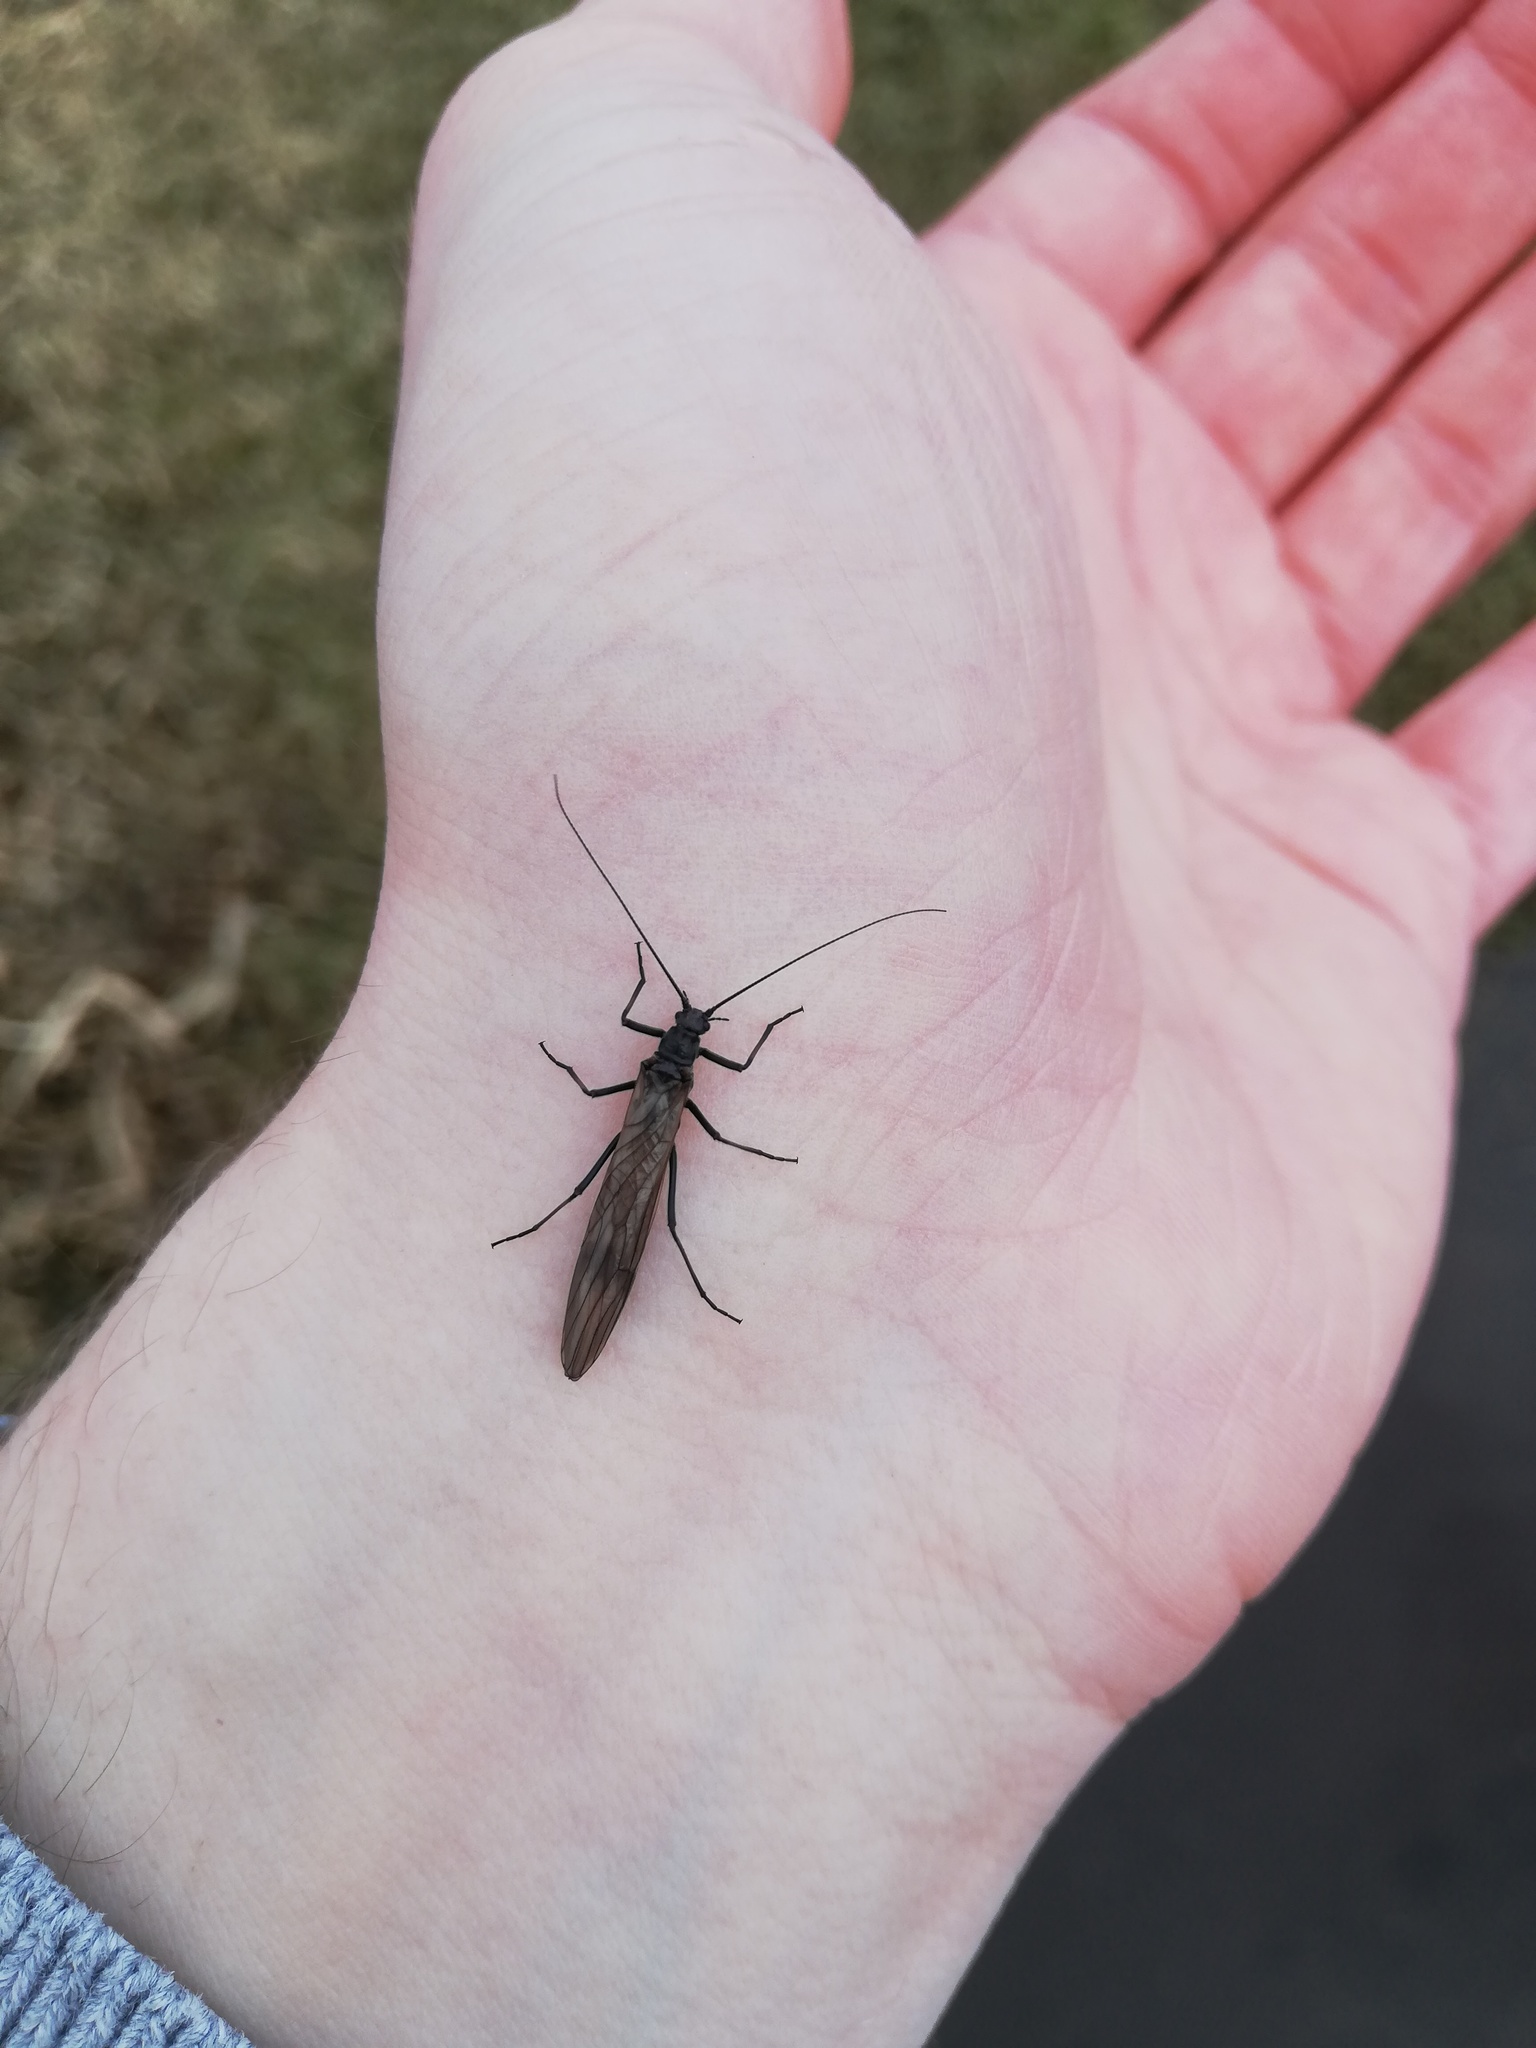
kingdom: Animalia
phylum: Arthropoda
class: Insecta
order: Plecoptera
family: Taeniopterygidae
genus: Taeniopteryx
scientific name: Taeniopteryx nebulosa
